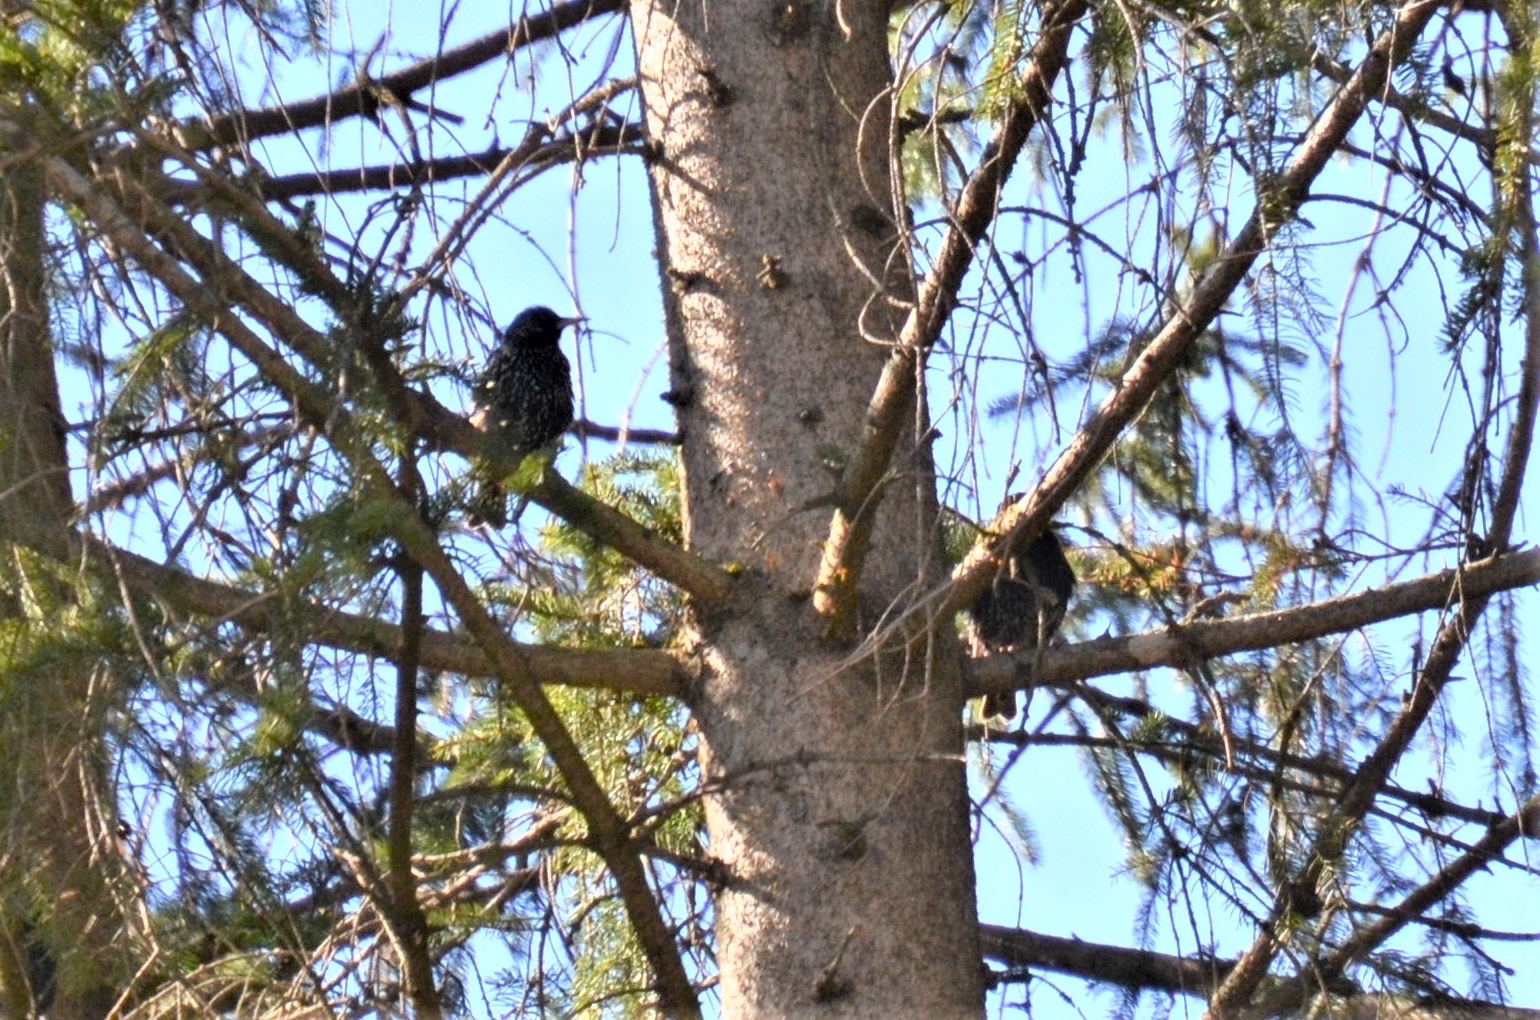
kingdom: Animalia
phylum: Chordata
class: Aves
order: Passeriformes
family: Sturnidae
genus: Sturnus
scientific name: Sturnus vulgaris
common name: Common starling
